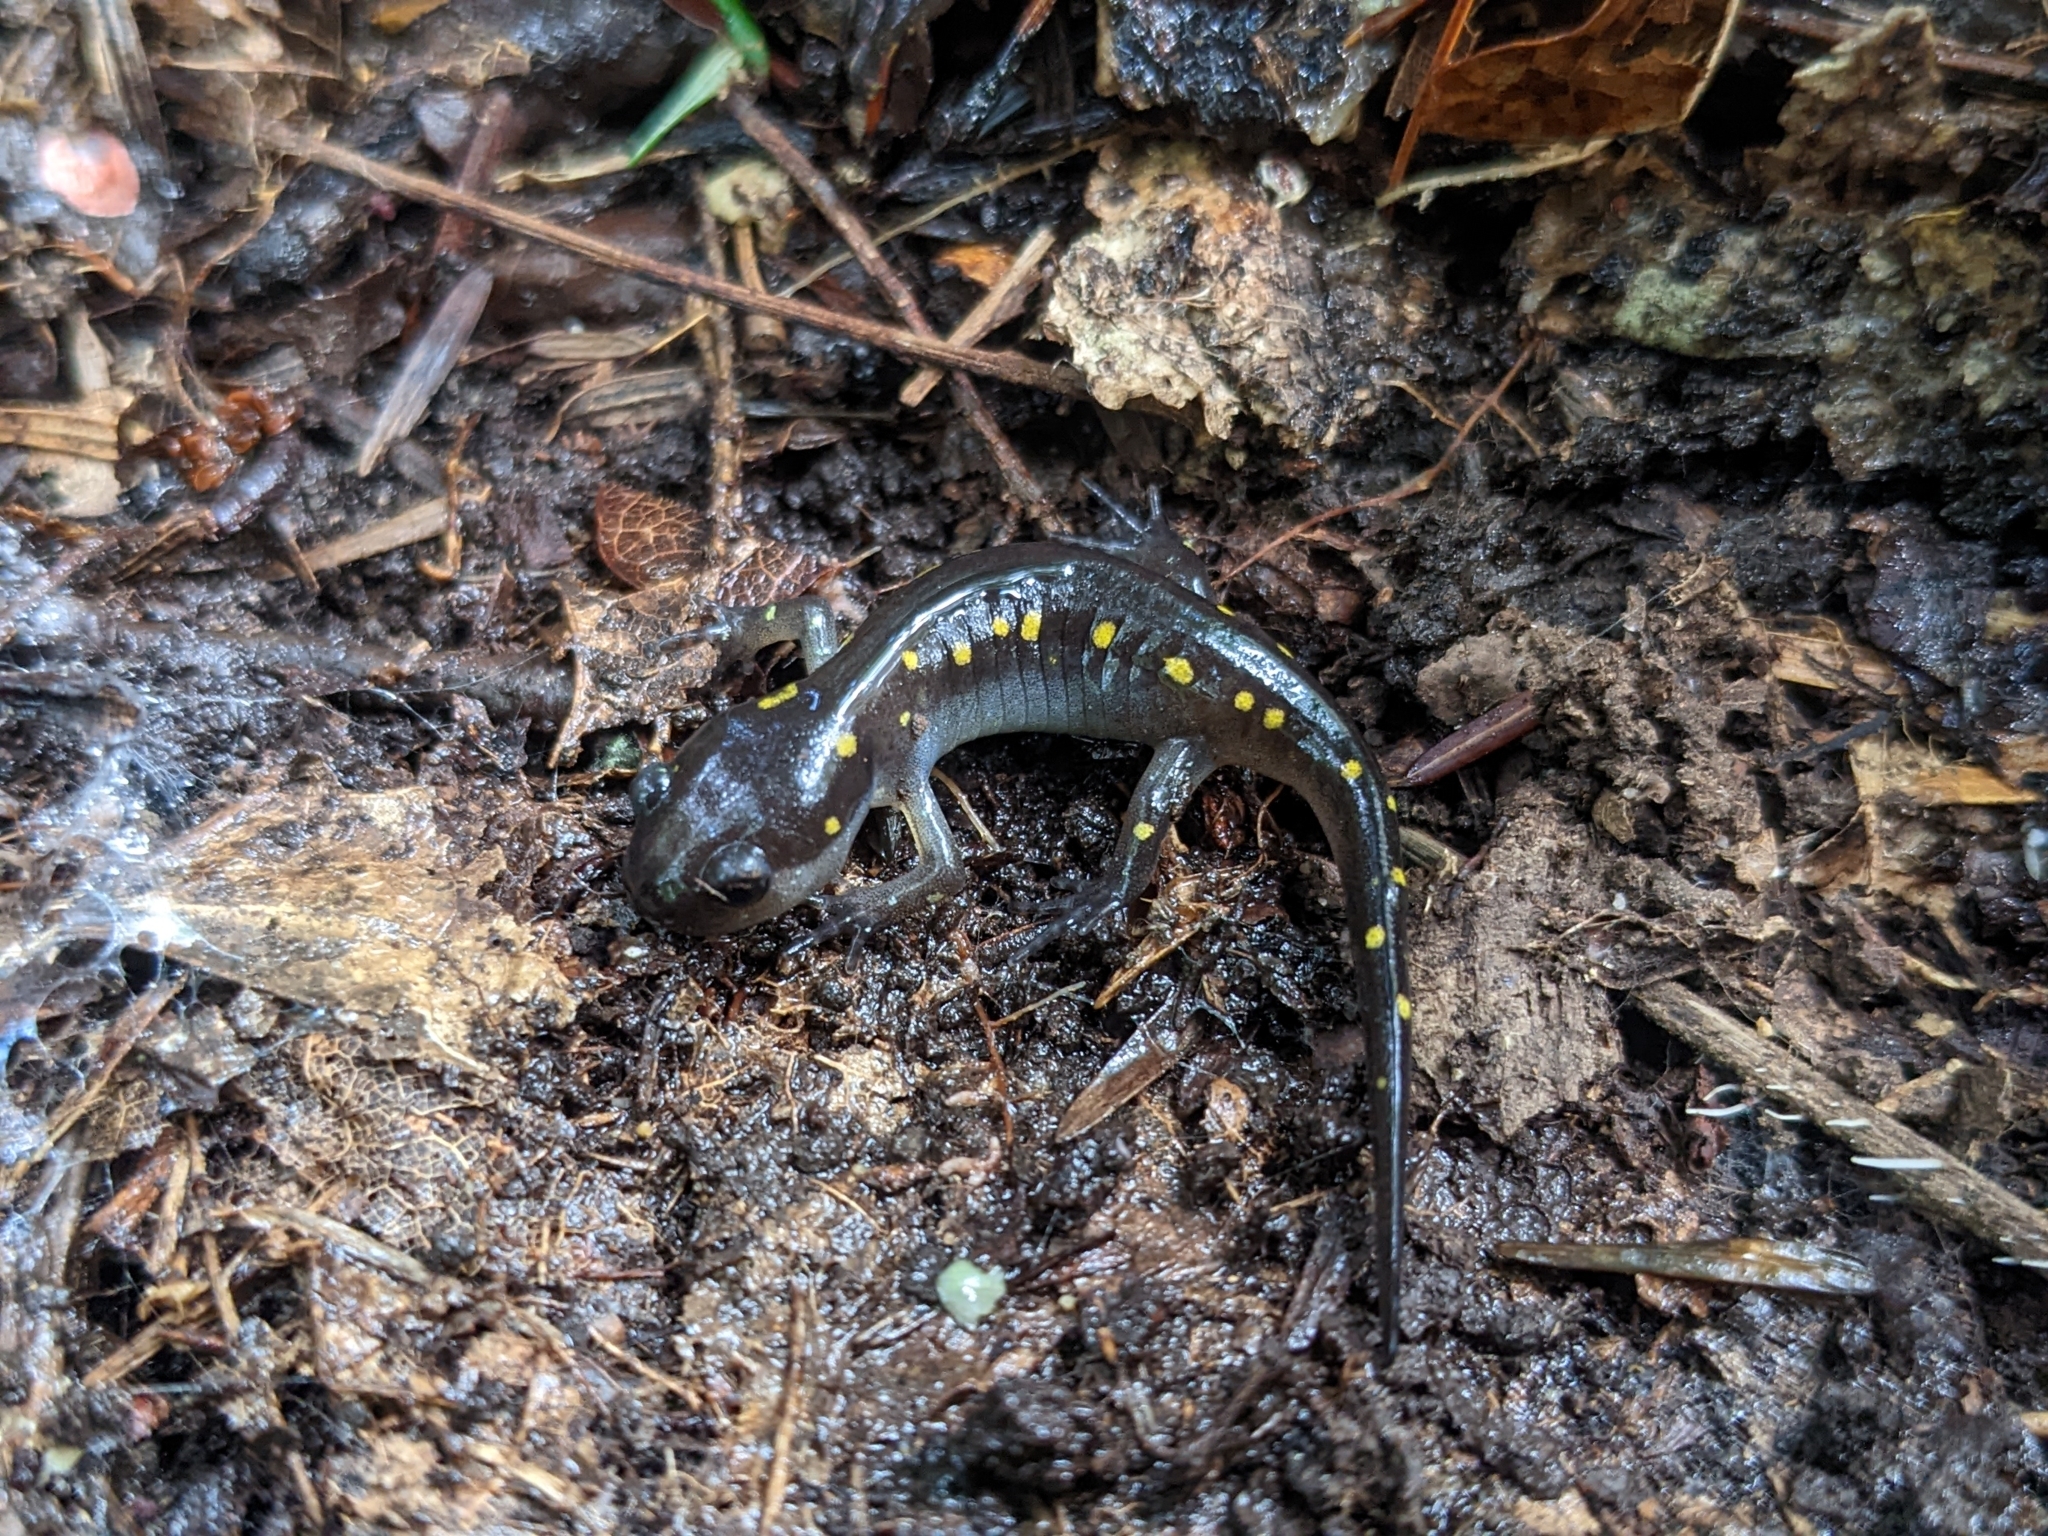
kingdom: Animalia
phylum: Chordata
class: Amphibia
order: Caudata
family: Ambystomatidae
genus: Ambystoma
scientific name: Ambystoma maculatum
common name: Spotted salamander
